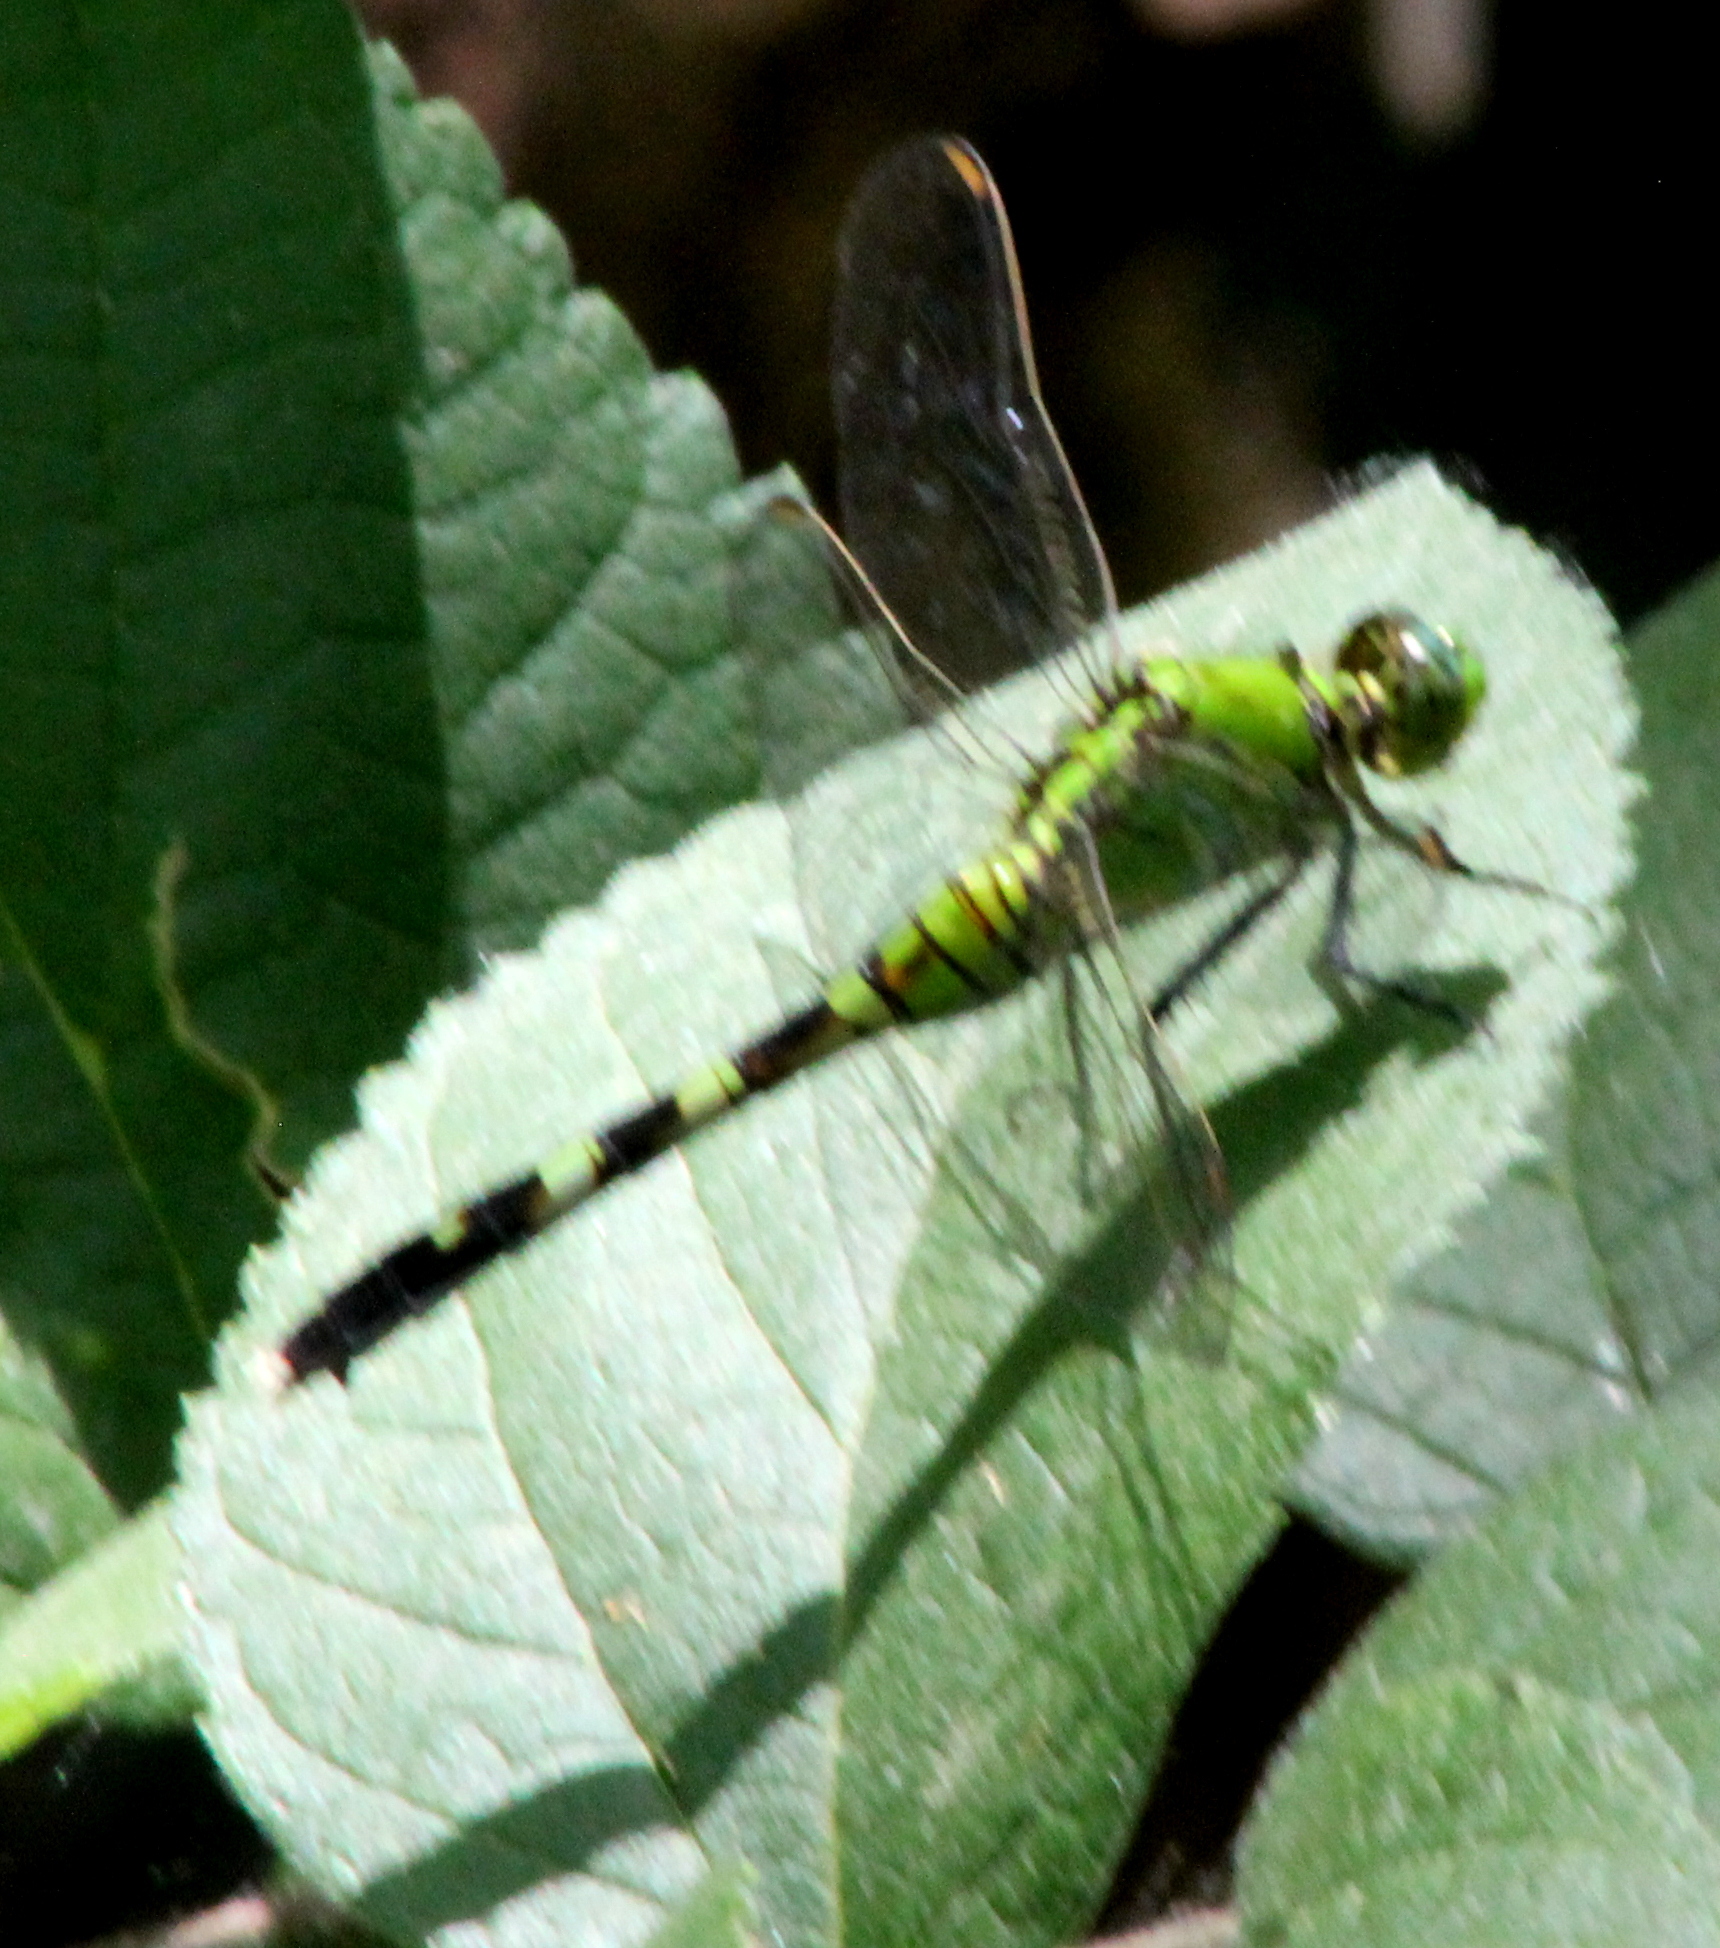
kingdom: Animalia
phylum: Arthropoda
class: Insecta
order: Odonata
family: Libellulidae
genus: Erythemis
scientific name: Erythemis simplicicollis
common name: Eastern pondhawk
